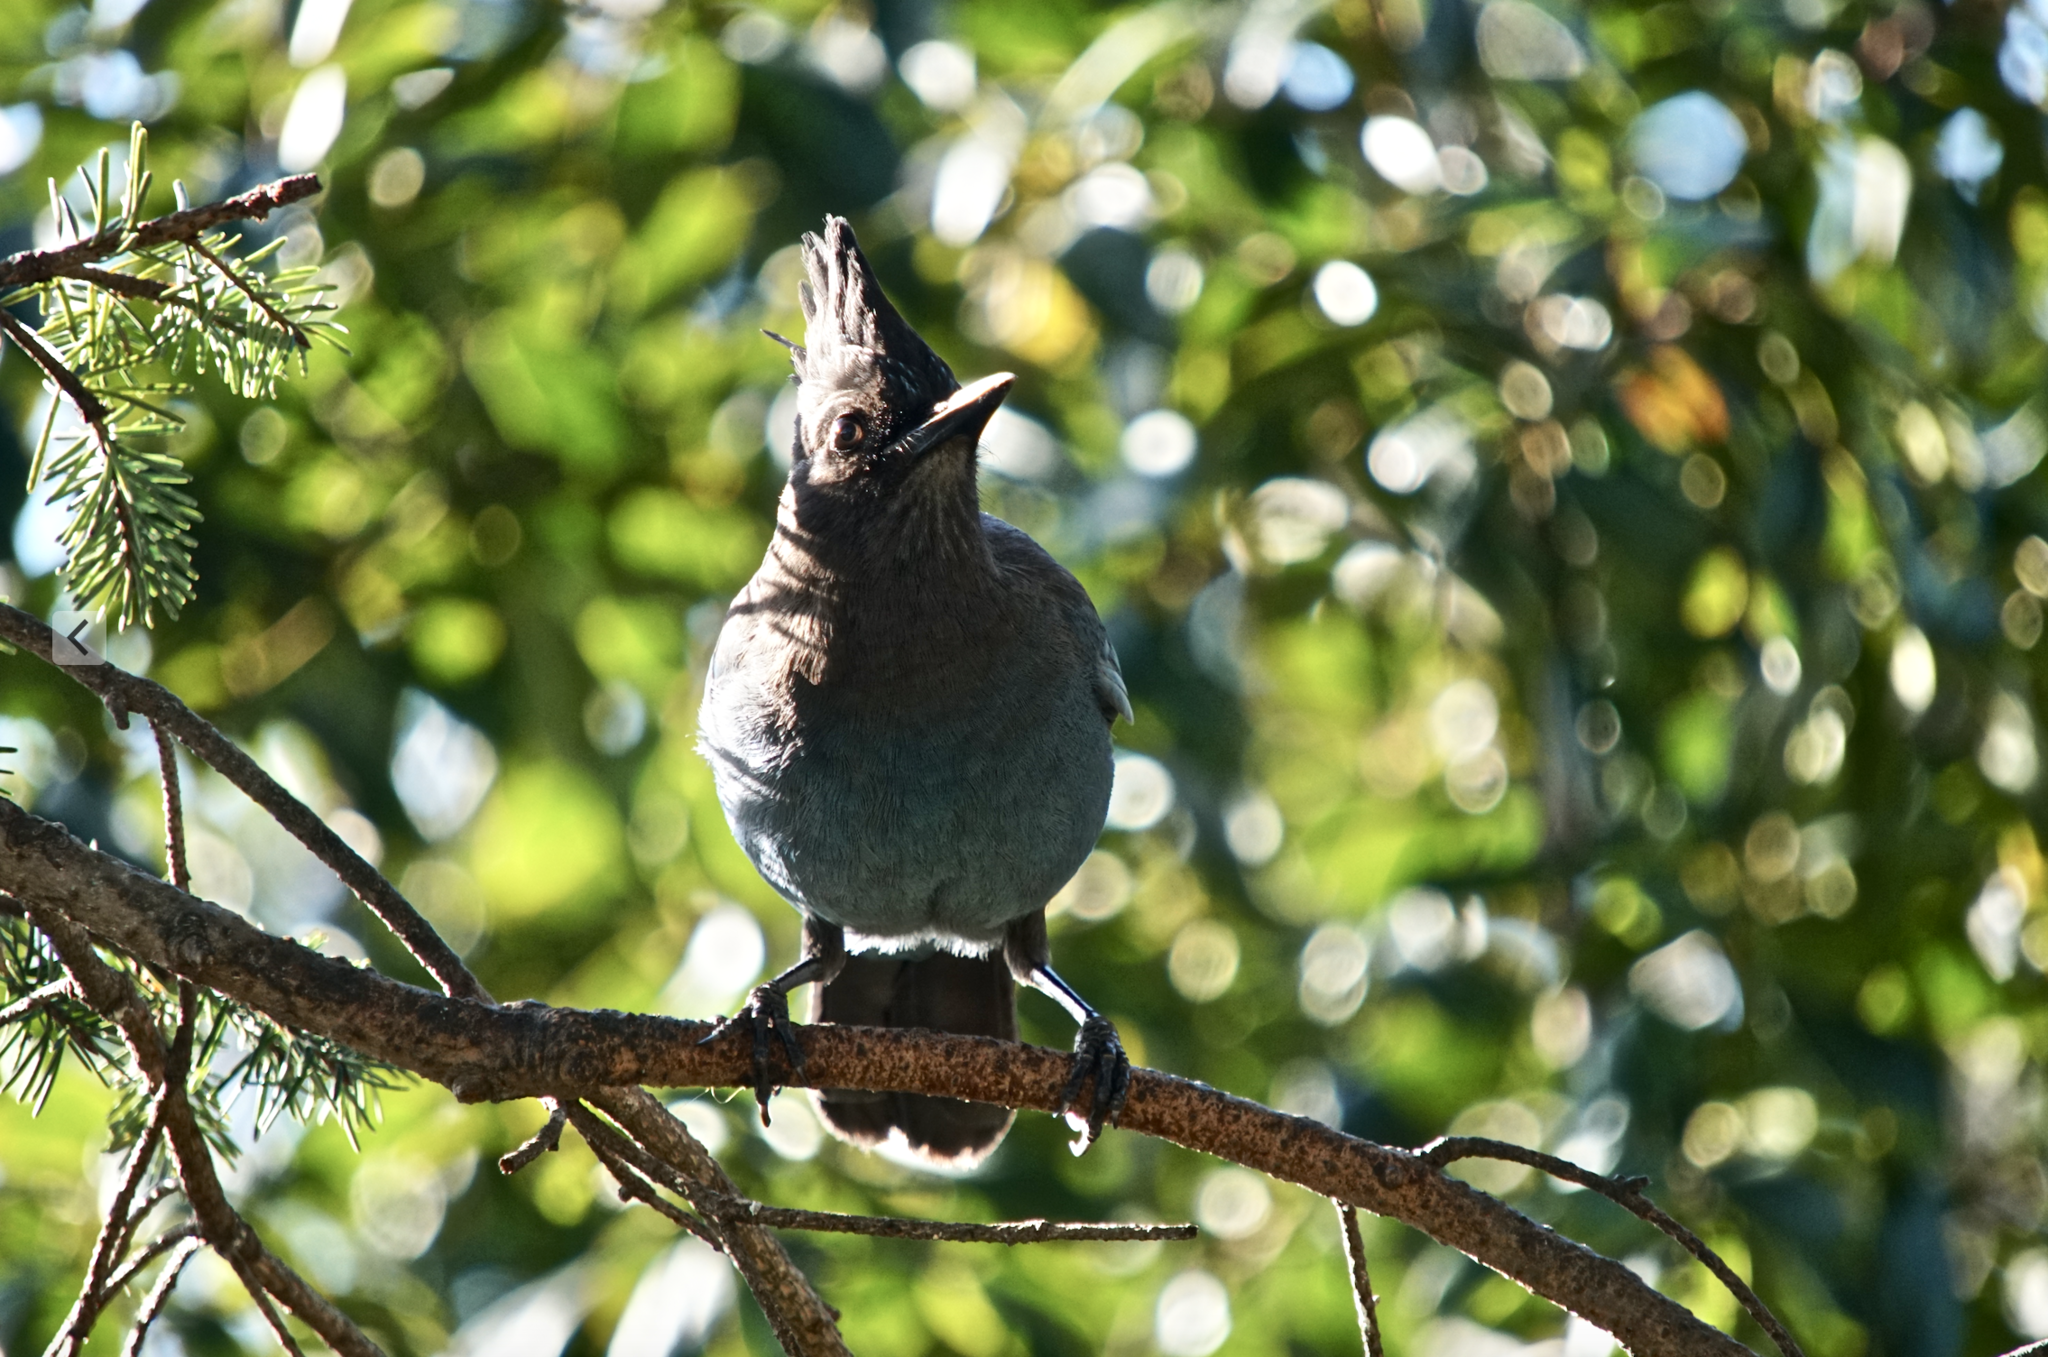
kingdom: Animalia
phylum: Chordata
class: Aves
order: Passeriformes
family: Corvidae
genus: Cyanocitta
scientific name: Cyanocitta stelleri
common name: Steller's jay
